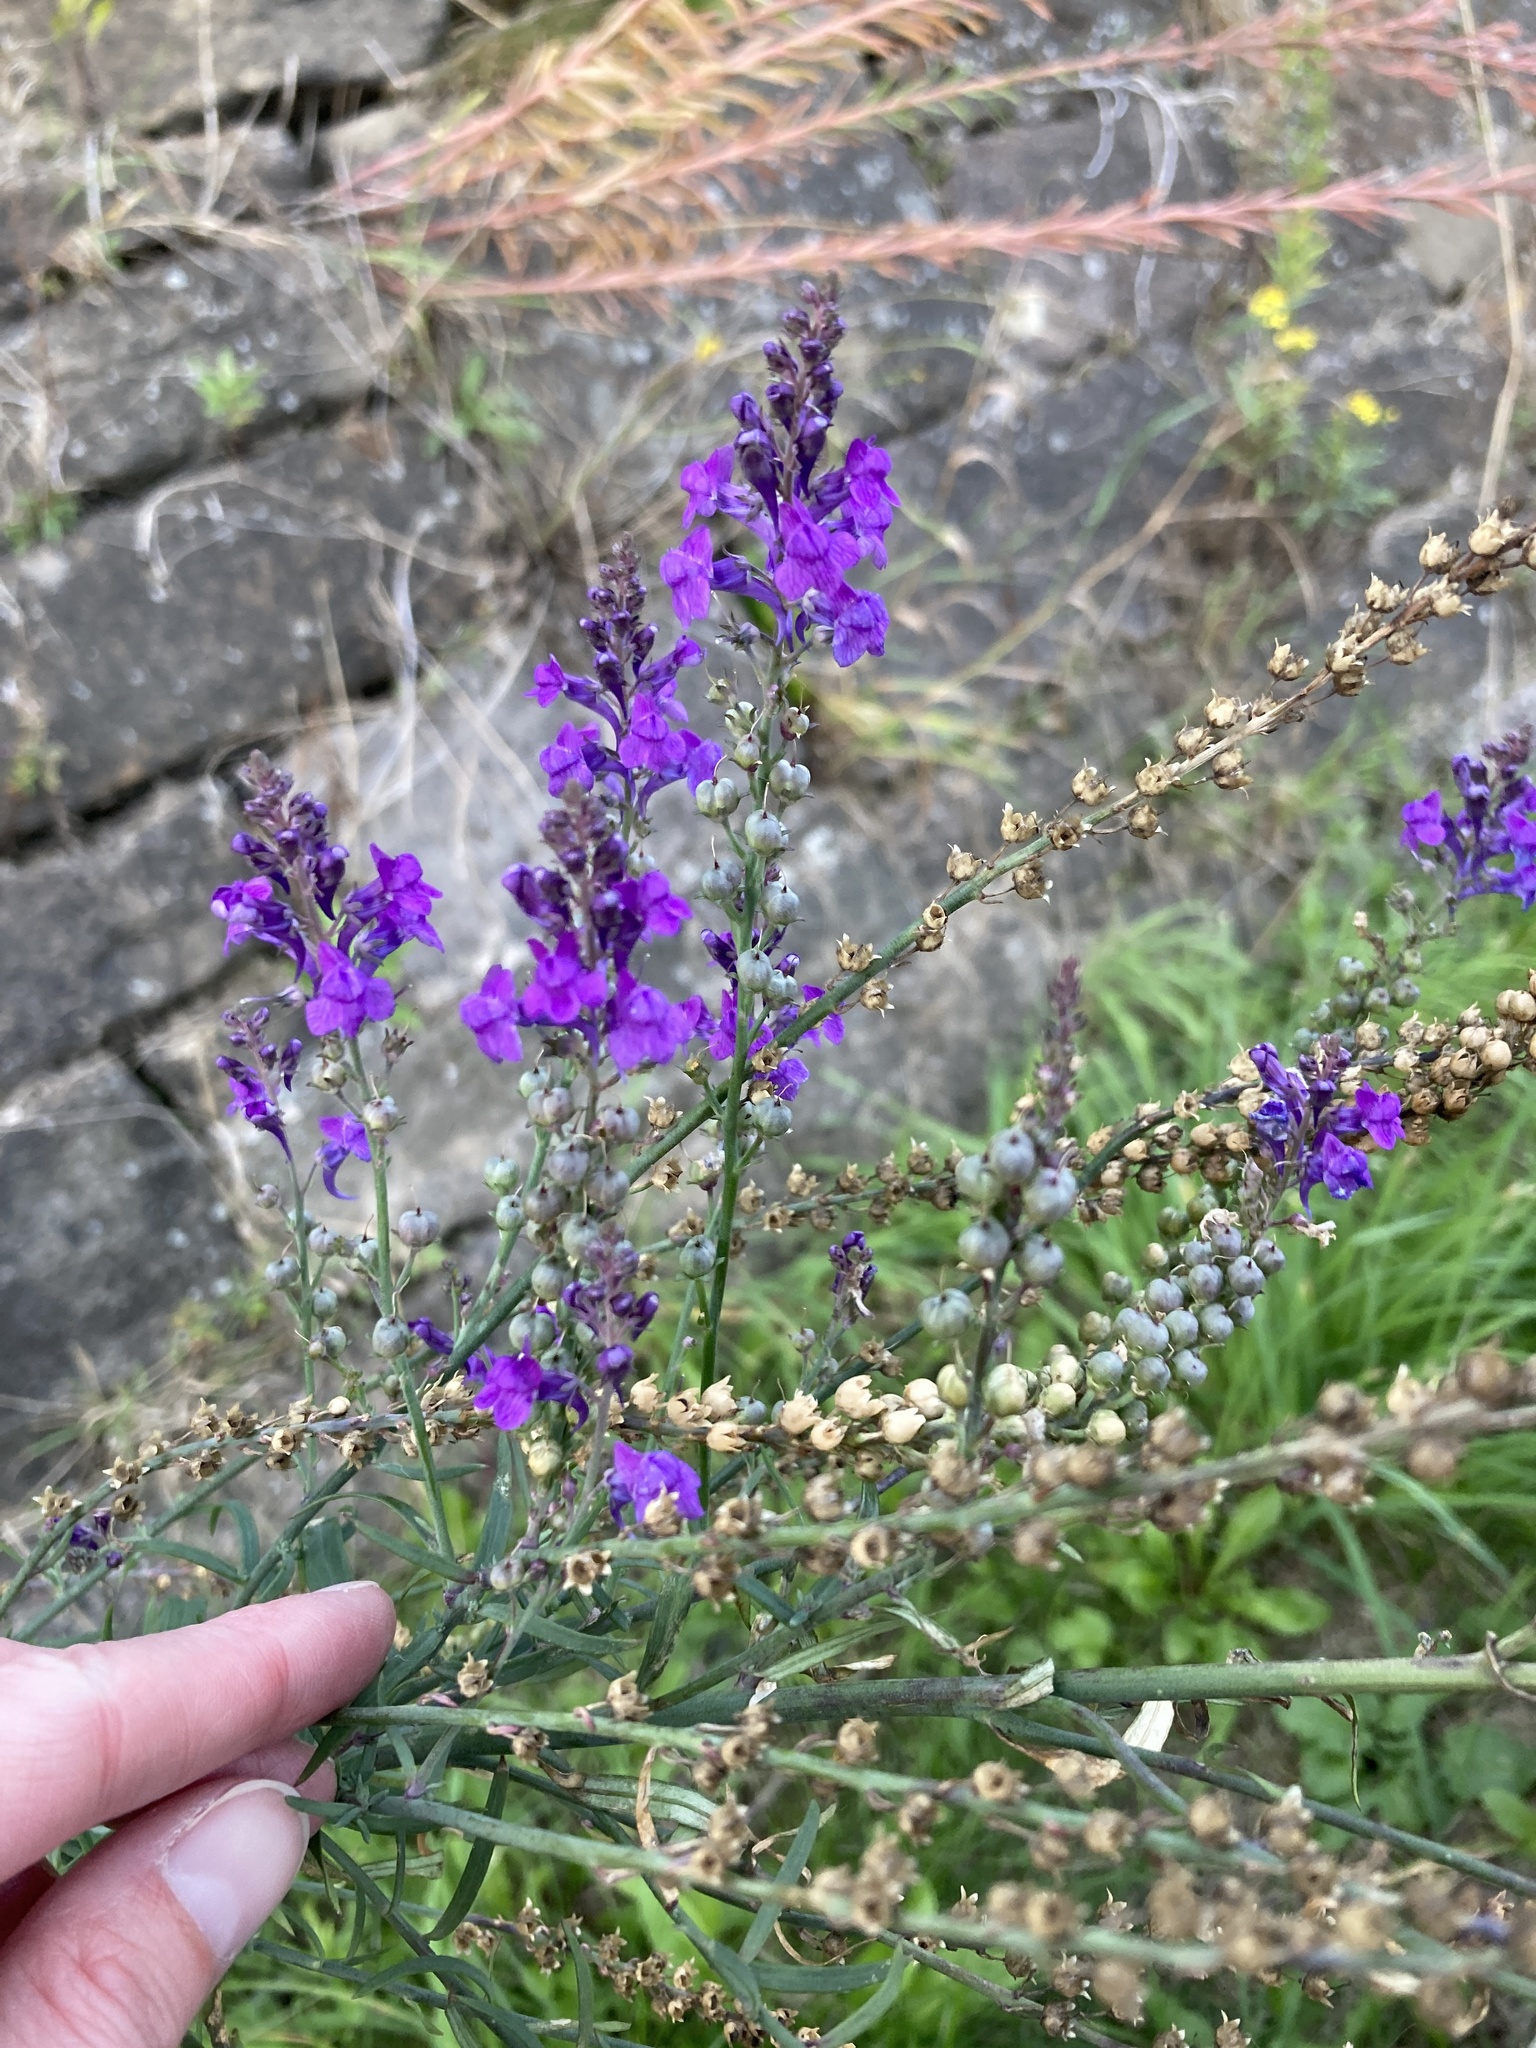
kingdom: Plantae
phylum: Tracheophyta
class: Magnoliopsida
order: Lamiales
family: Plantaginaceae
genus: Linaria
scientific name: Linaria purpurea
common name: Purple toadflax
